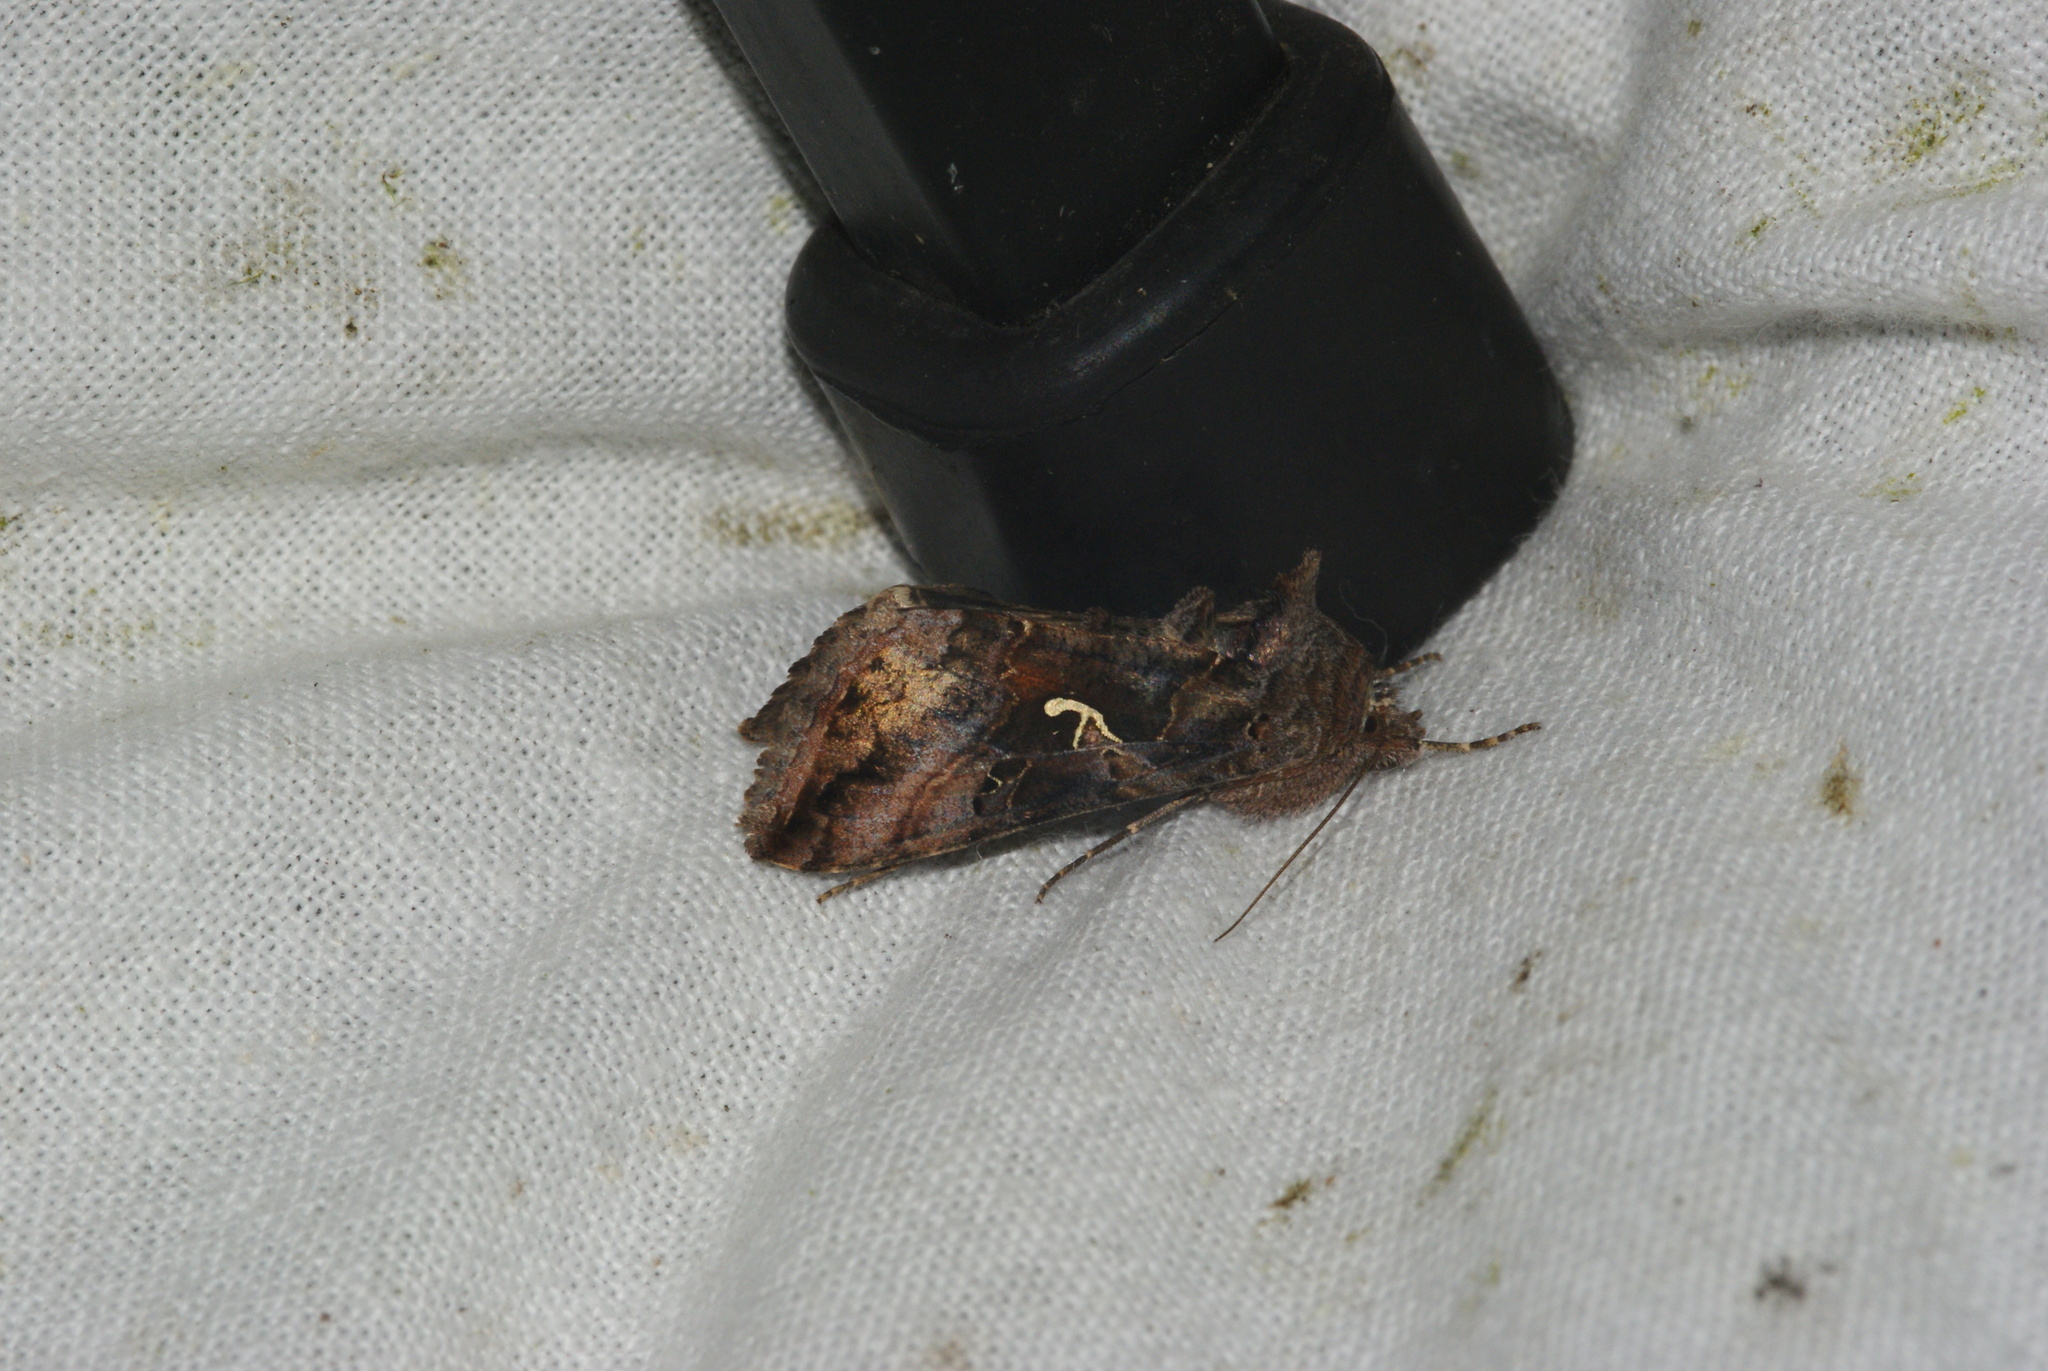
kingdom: Animalia
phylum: Arthropoda
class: Insecta
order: Lepidoptera
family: Noctuidae
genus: Autographa
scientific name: Autographa gamma
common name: Silver y
